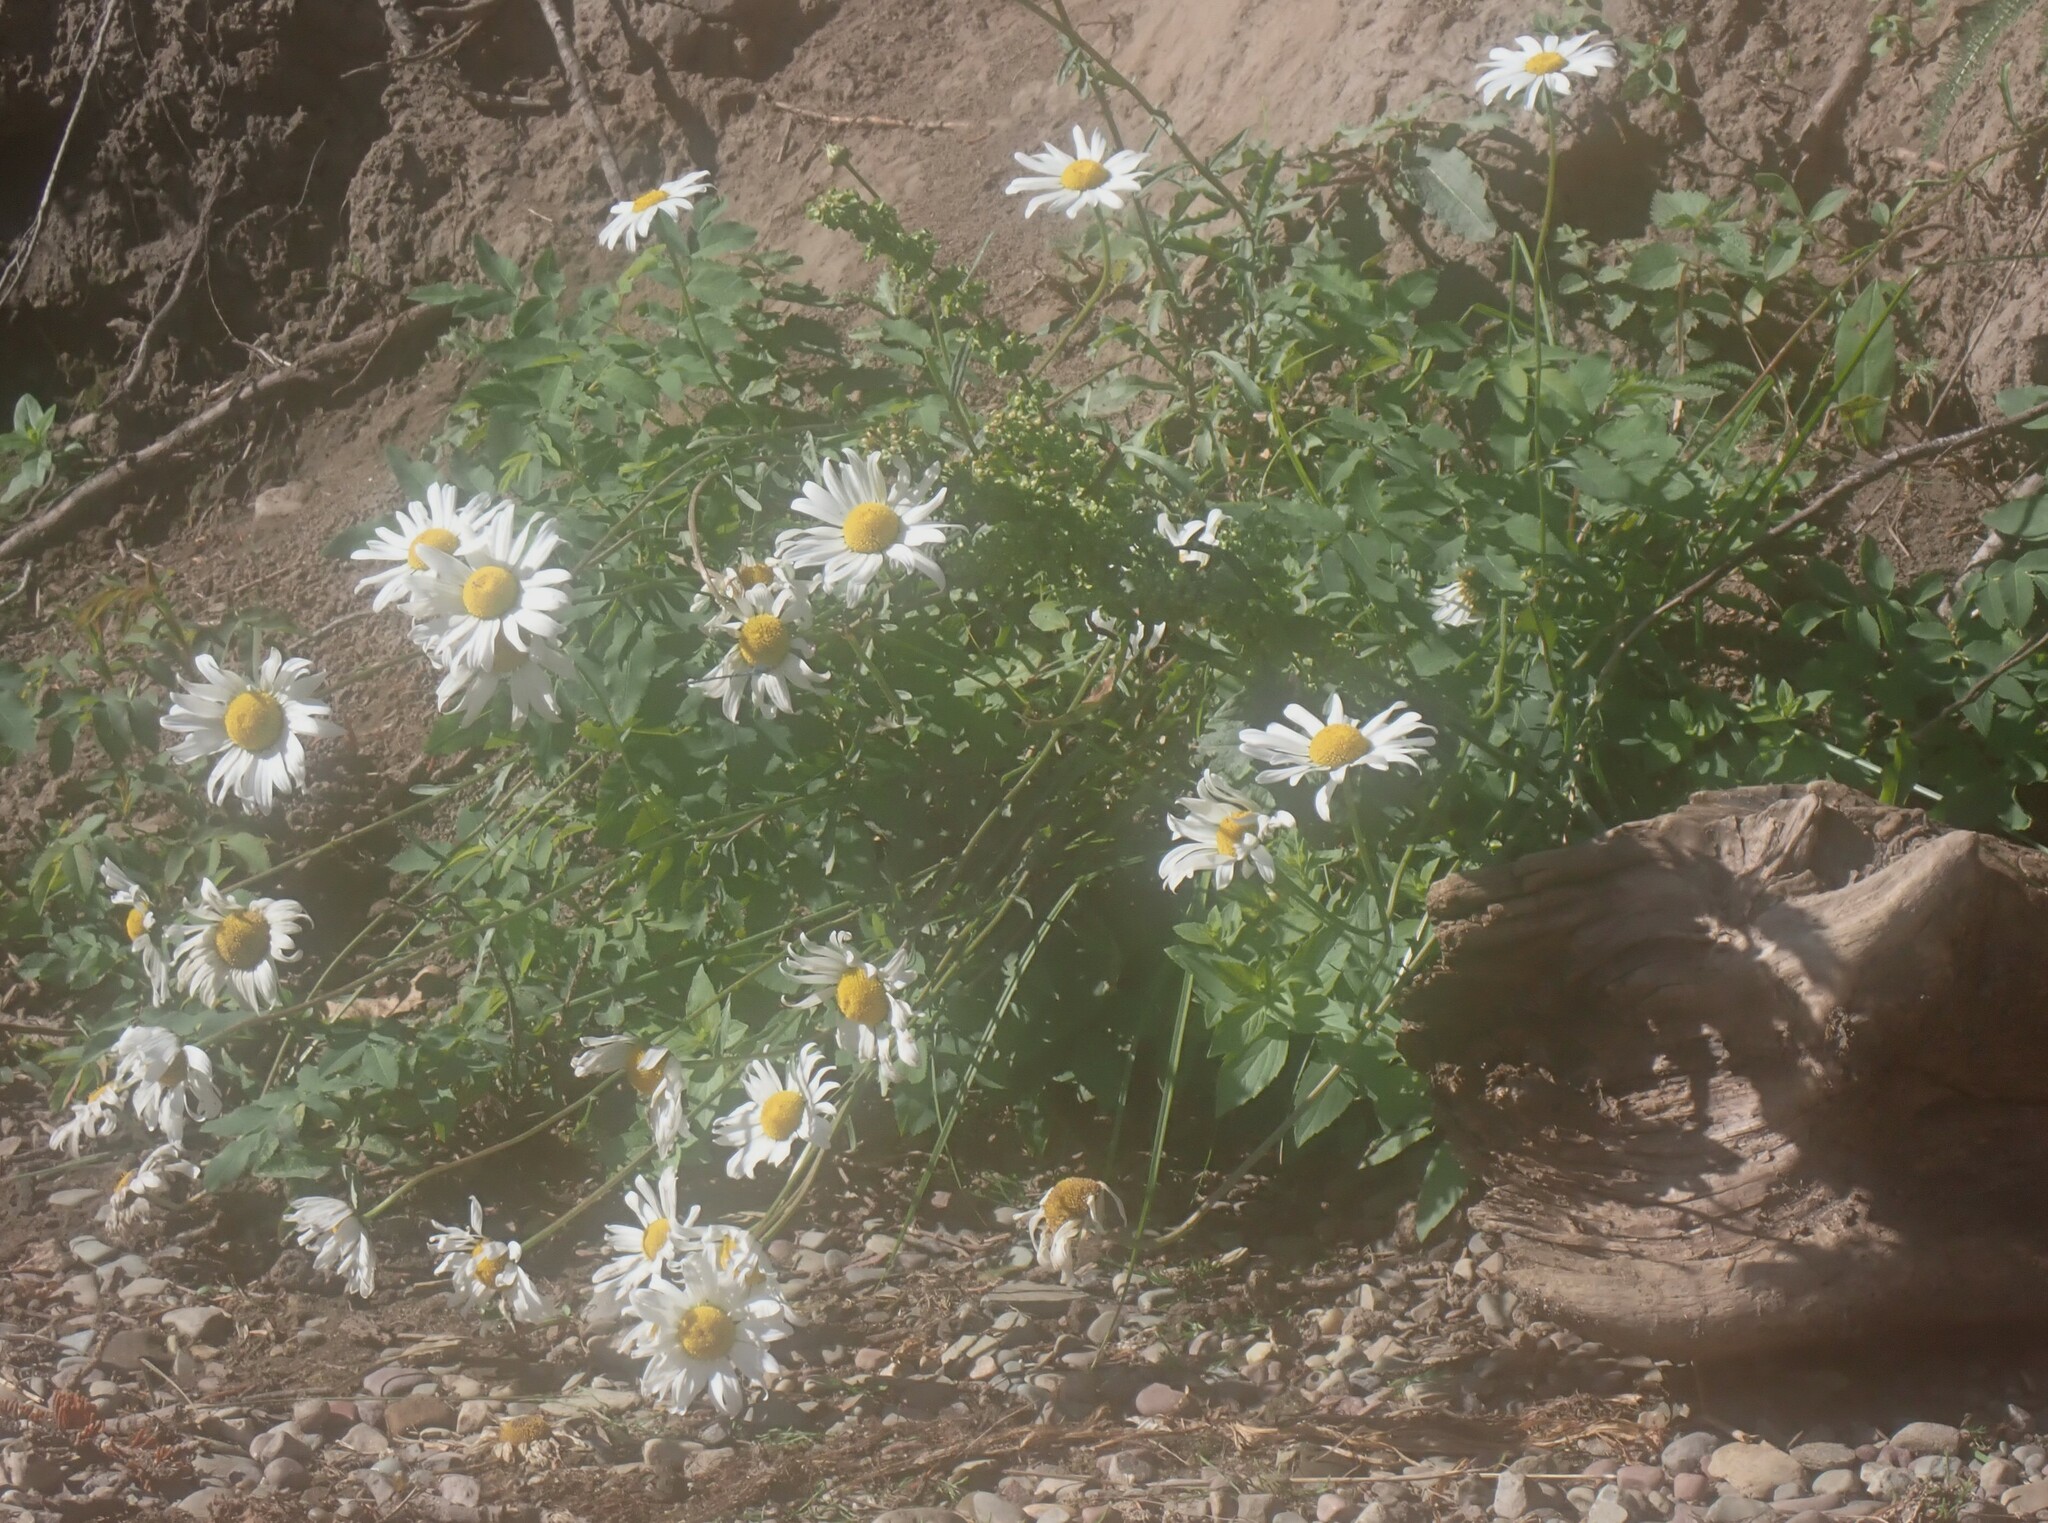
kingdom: Plantae
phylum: Tracheophyta
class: Magnoliopsida
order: Asterales
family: Asteraceae
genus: Leucanthemum
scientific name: Leucanthemum vulgare
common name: Oxeye daisy
